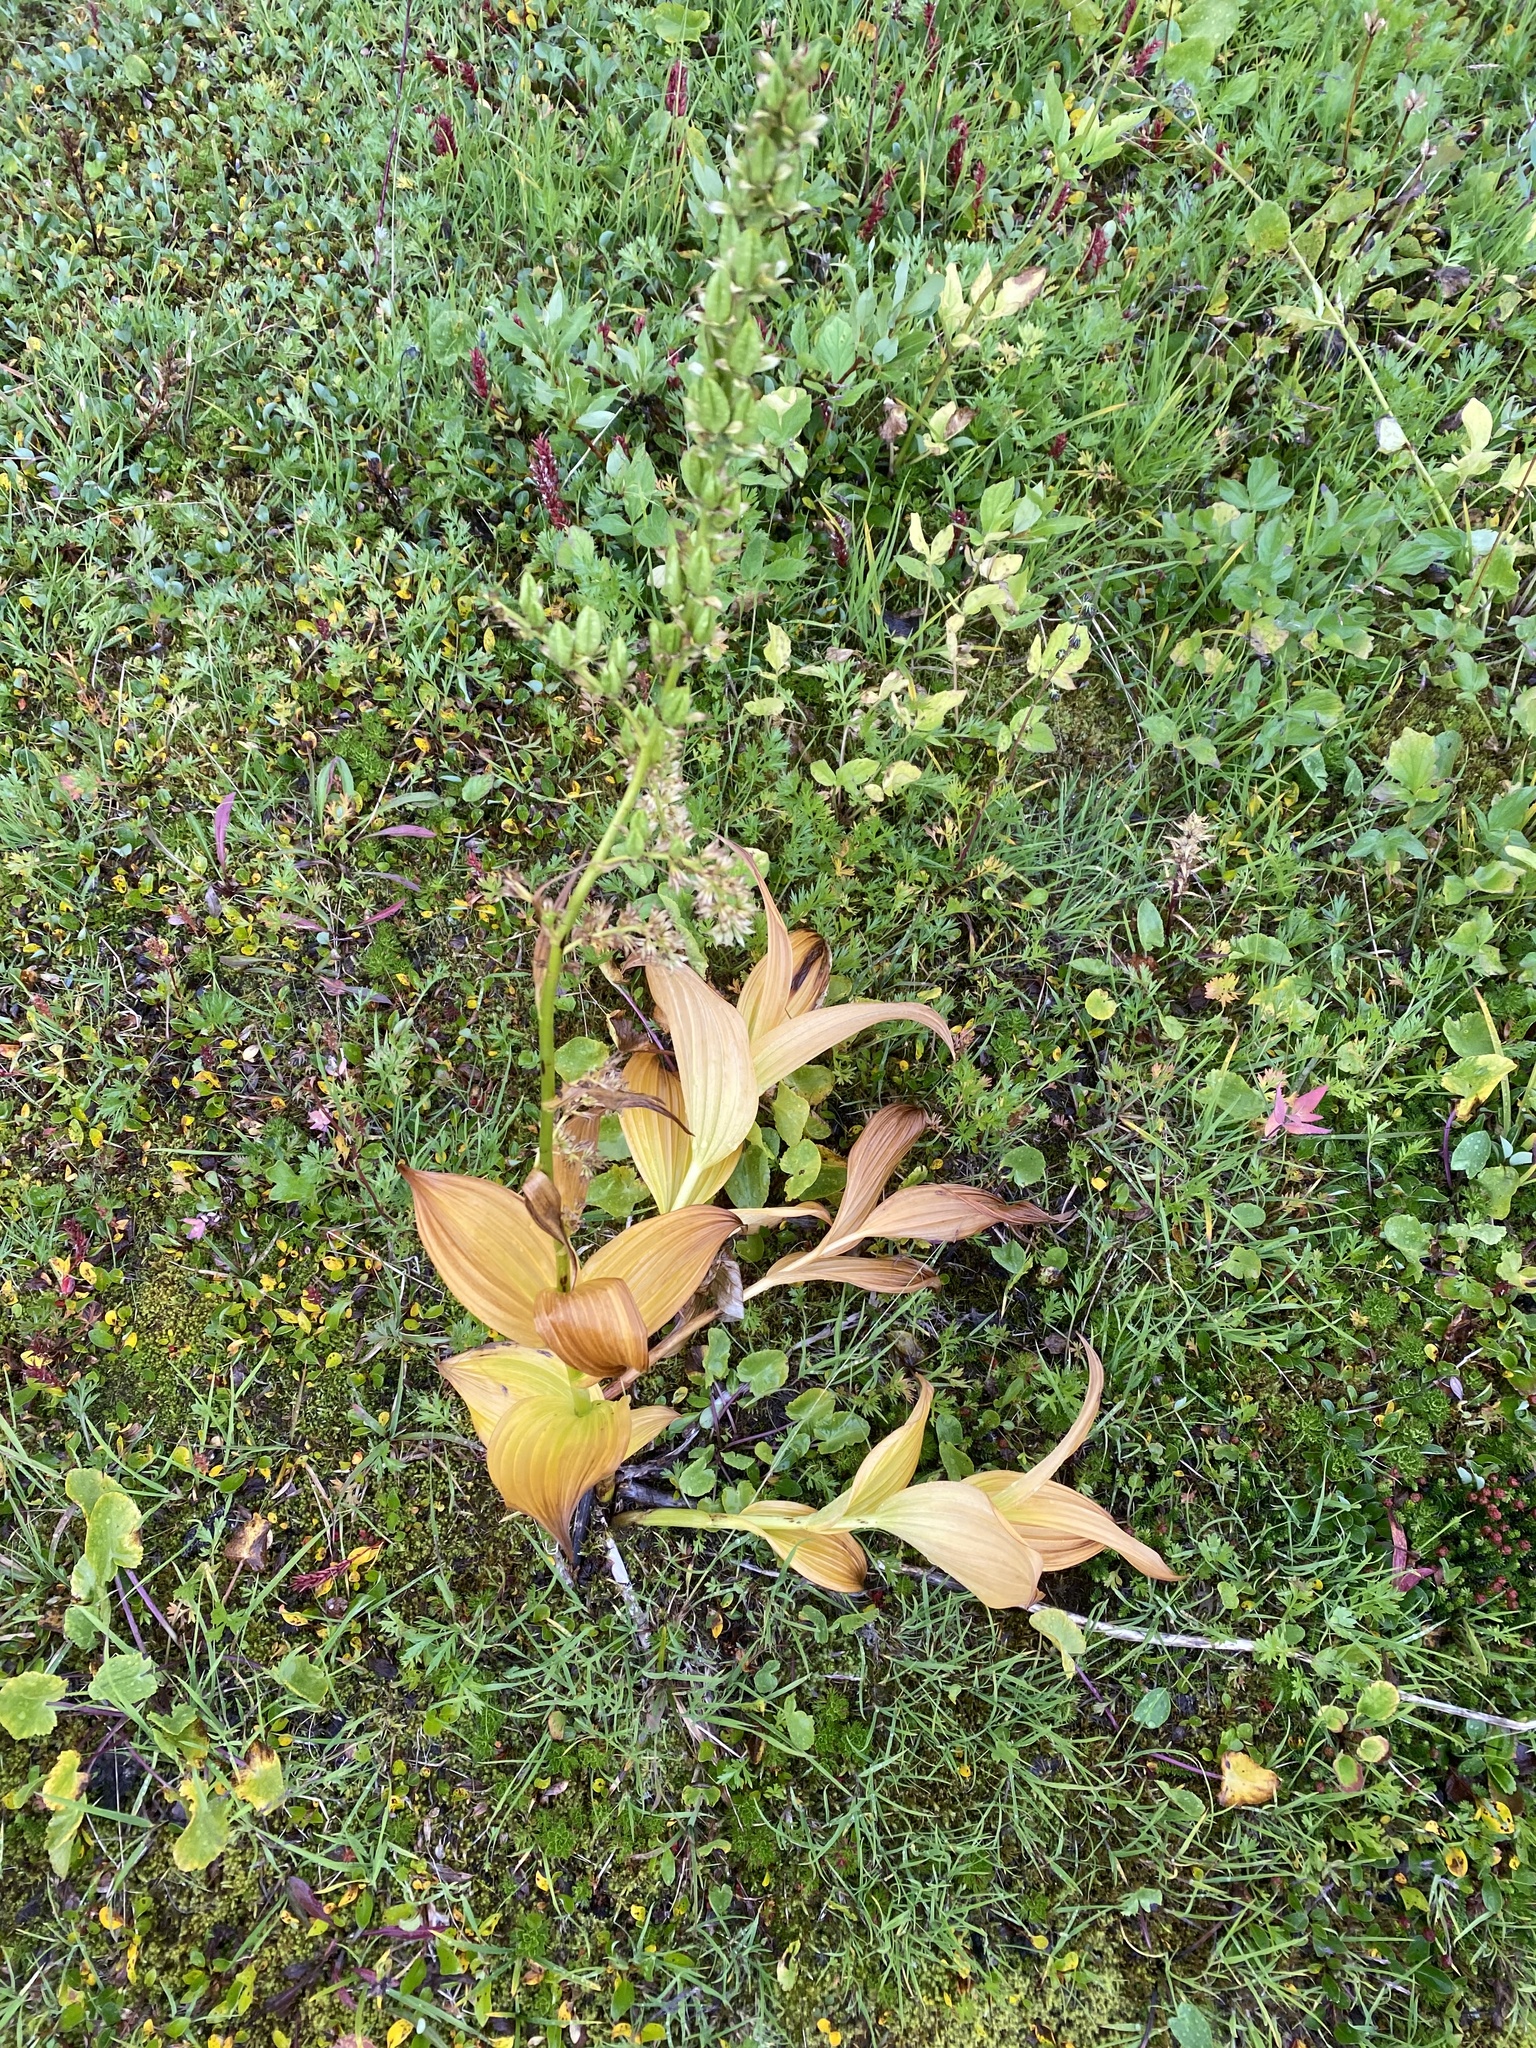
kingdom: Plantae
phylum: Tracheophyta
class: Liliopsida
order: Liliales
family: Melanthiaceae
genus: Veratrum
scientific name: Veratrum viride
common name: American false hellebore
